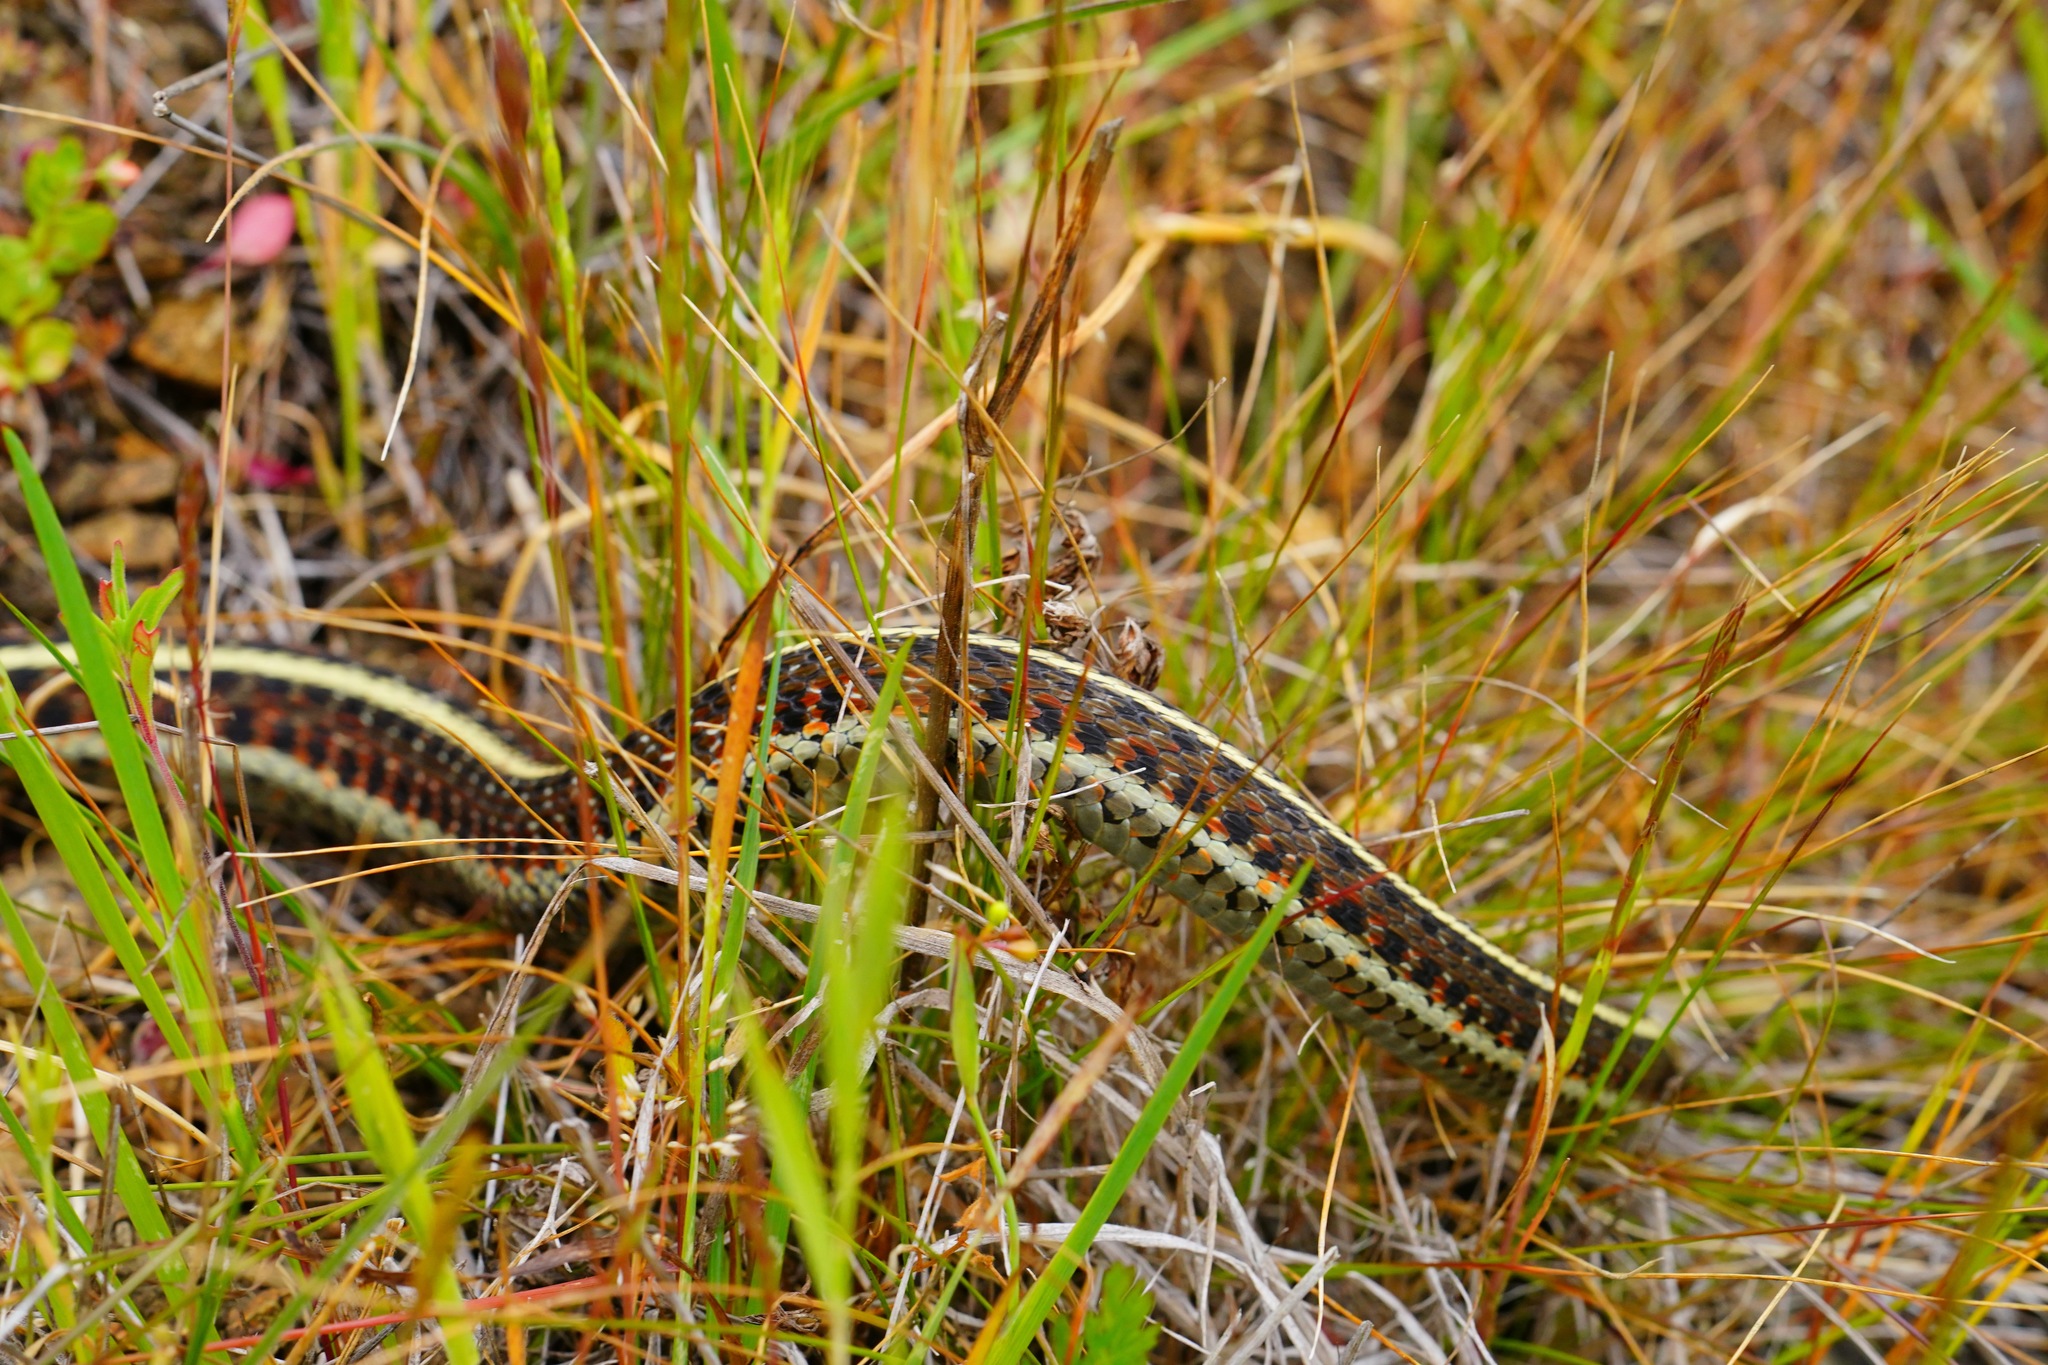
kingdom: Animalia
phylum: Chordata
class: Squamata
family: Colubridae
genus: Thamnophis
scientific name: Thamnophis elegans
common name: Western terrestrial garter snake
